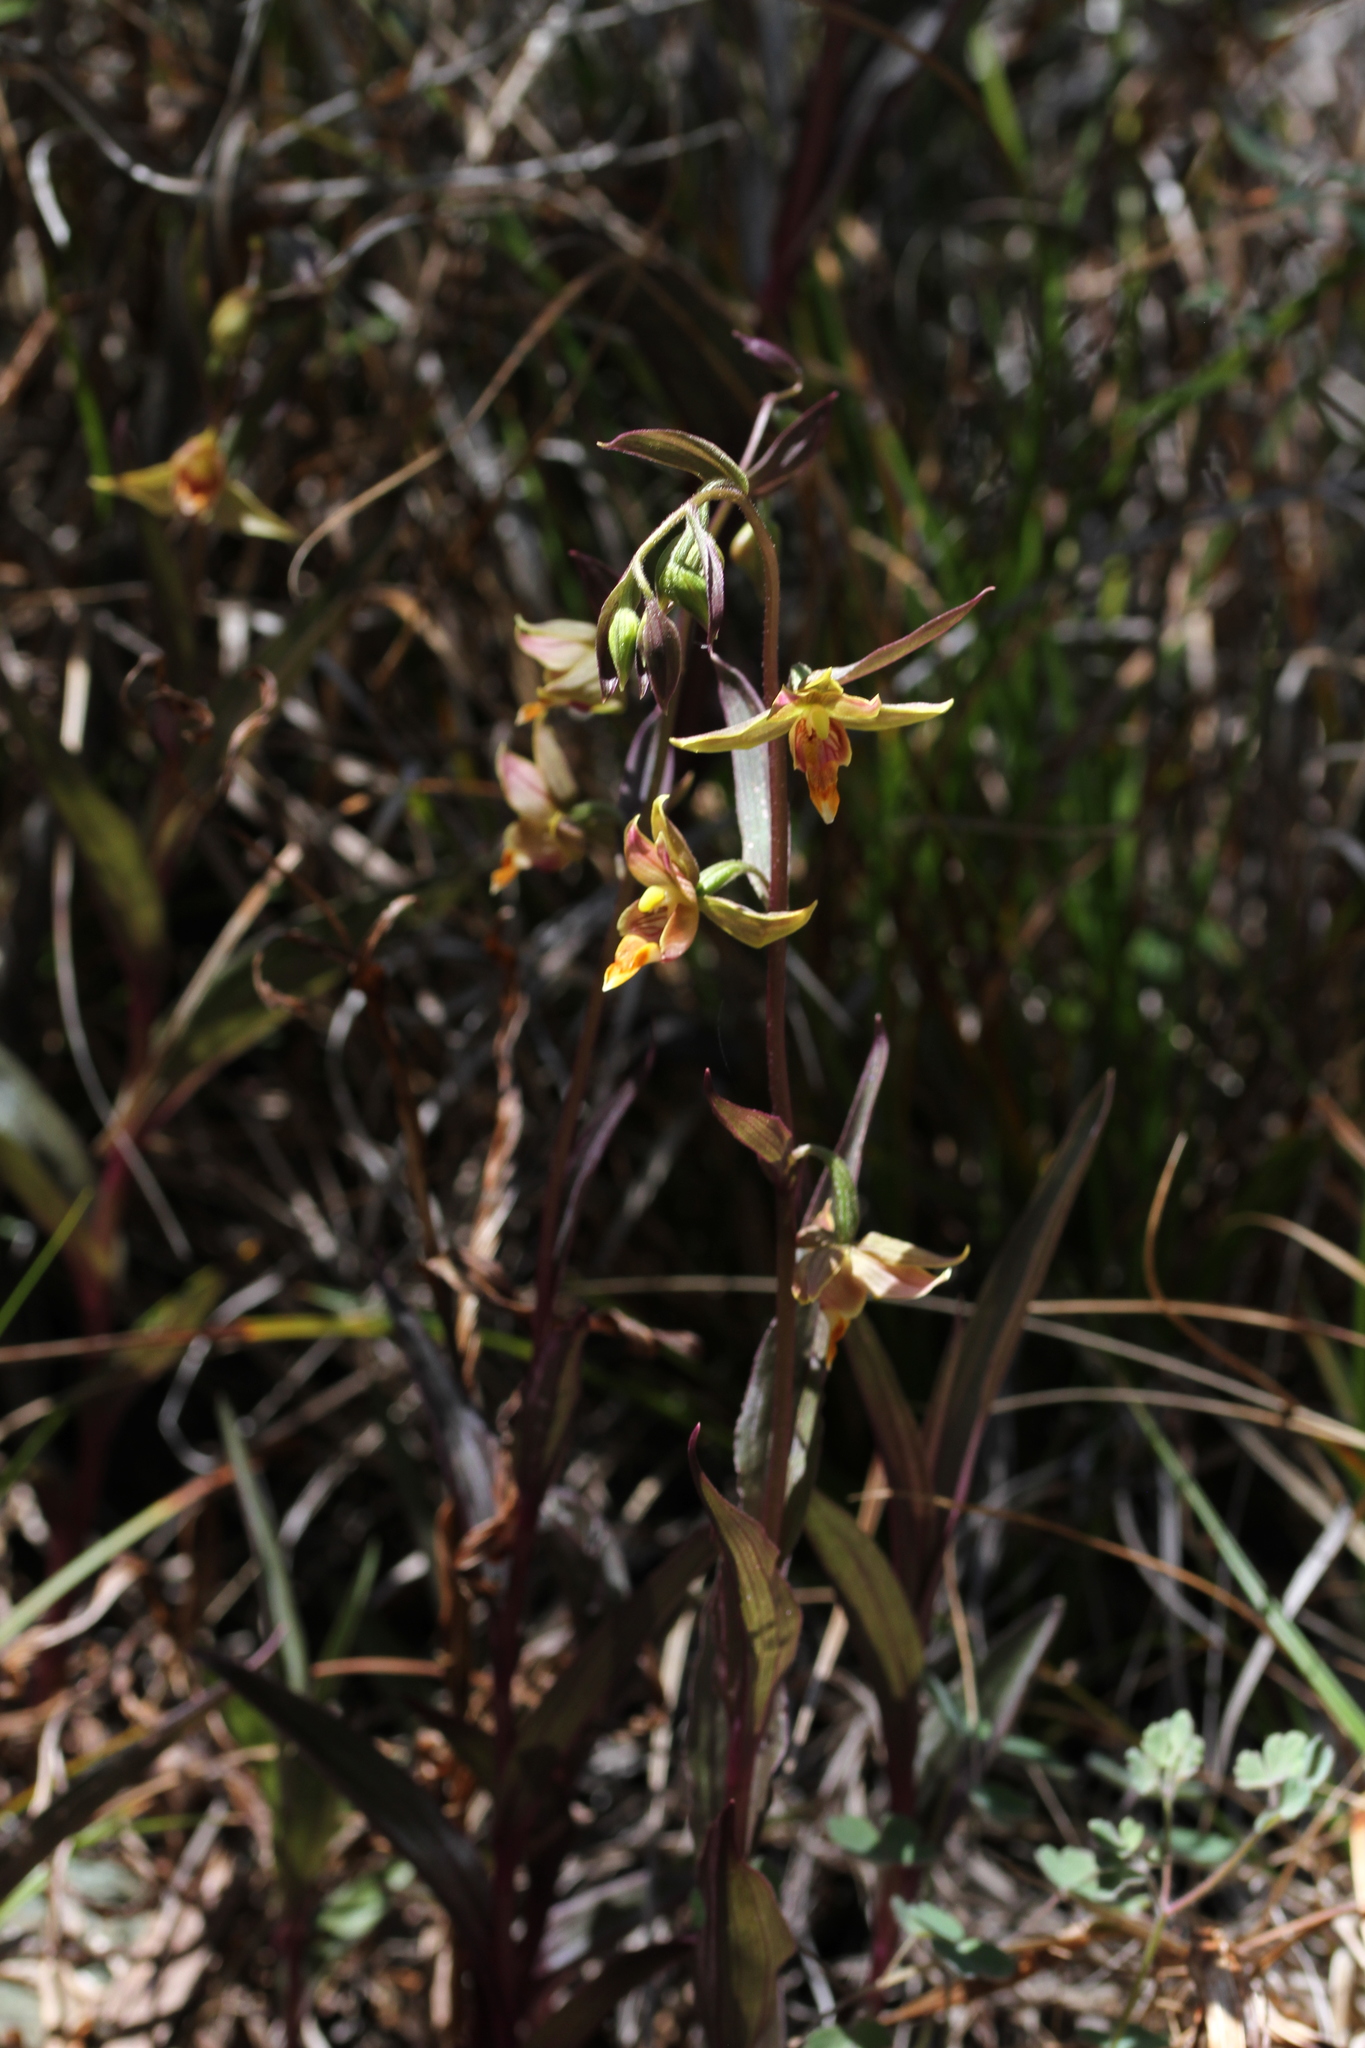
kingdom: Plantae
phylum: Tracheophyta
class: Liliopsida
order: Asparagales
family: Orchidaceae
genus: Epipactis
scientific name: Epipactis gigantea
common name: Chatterbox
